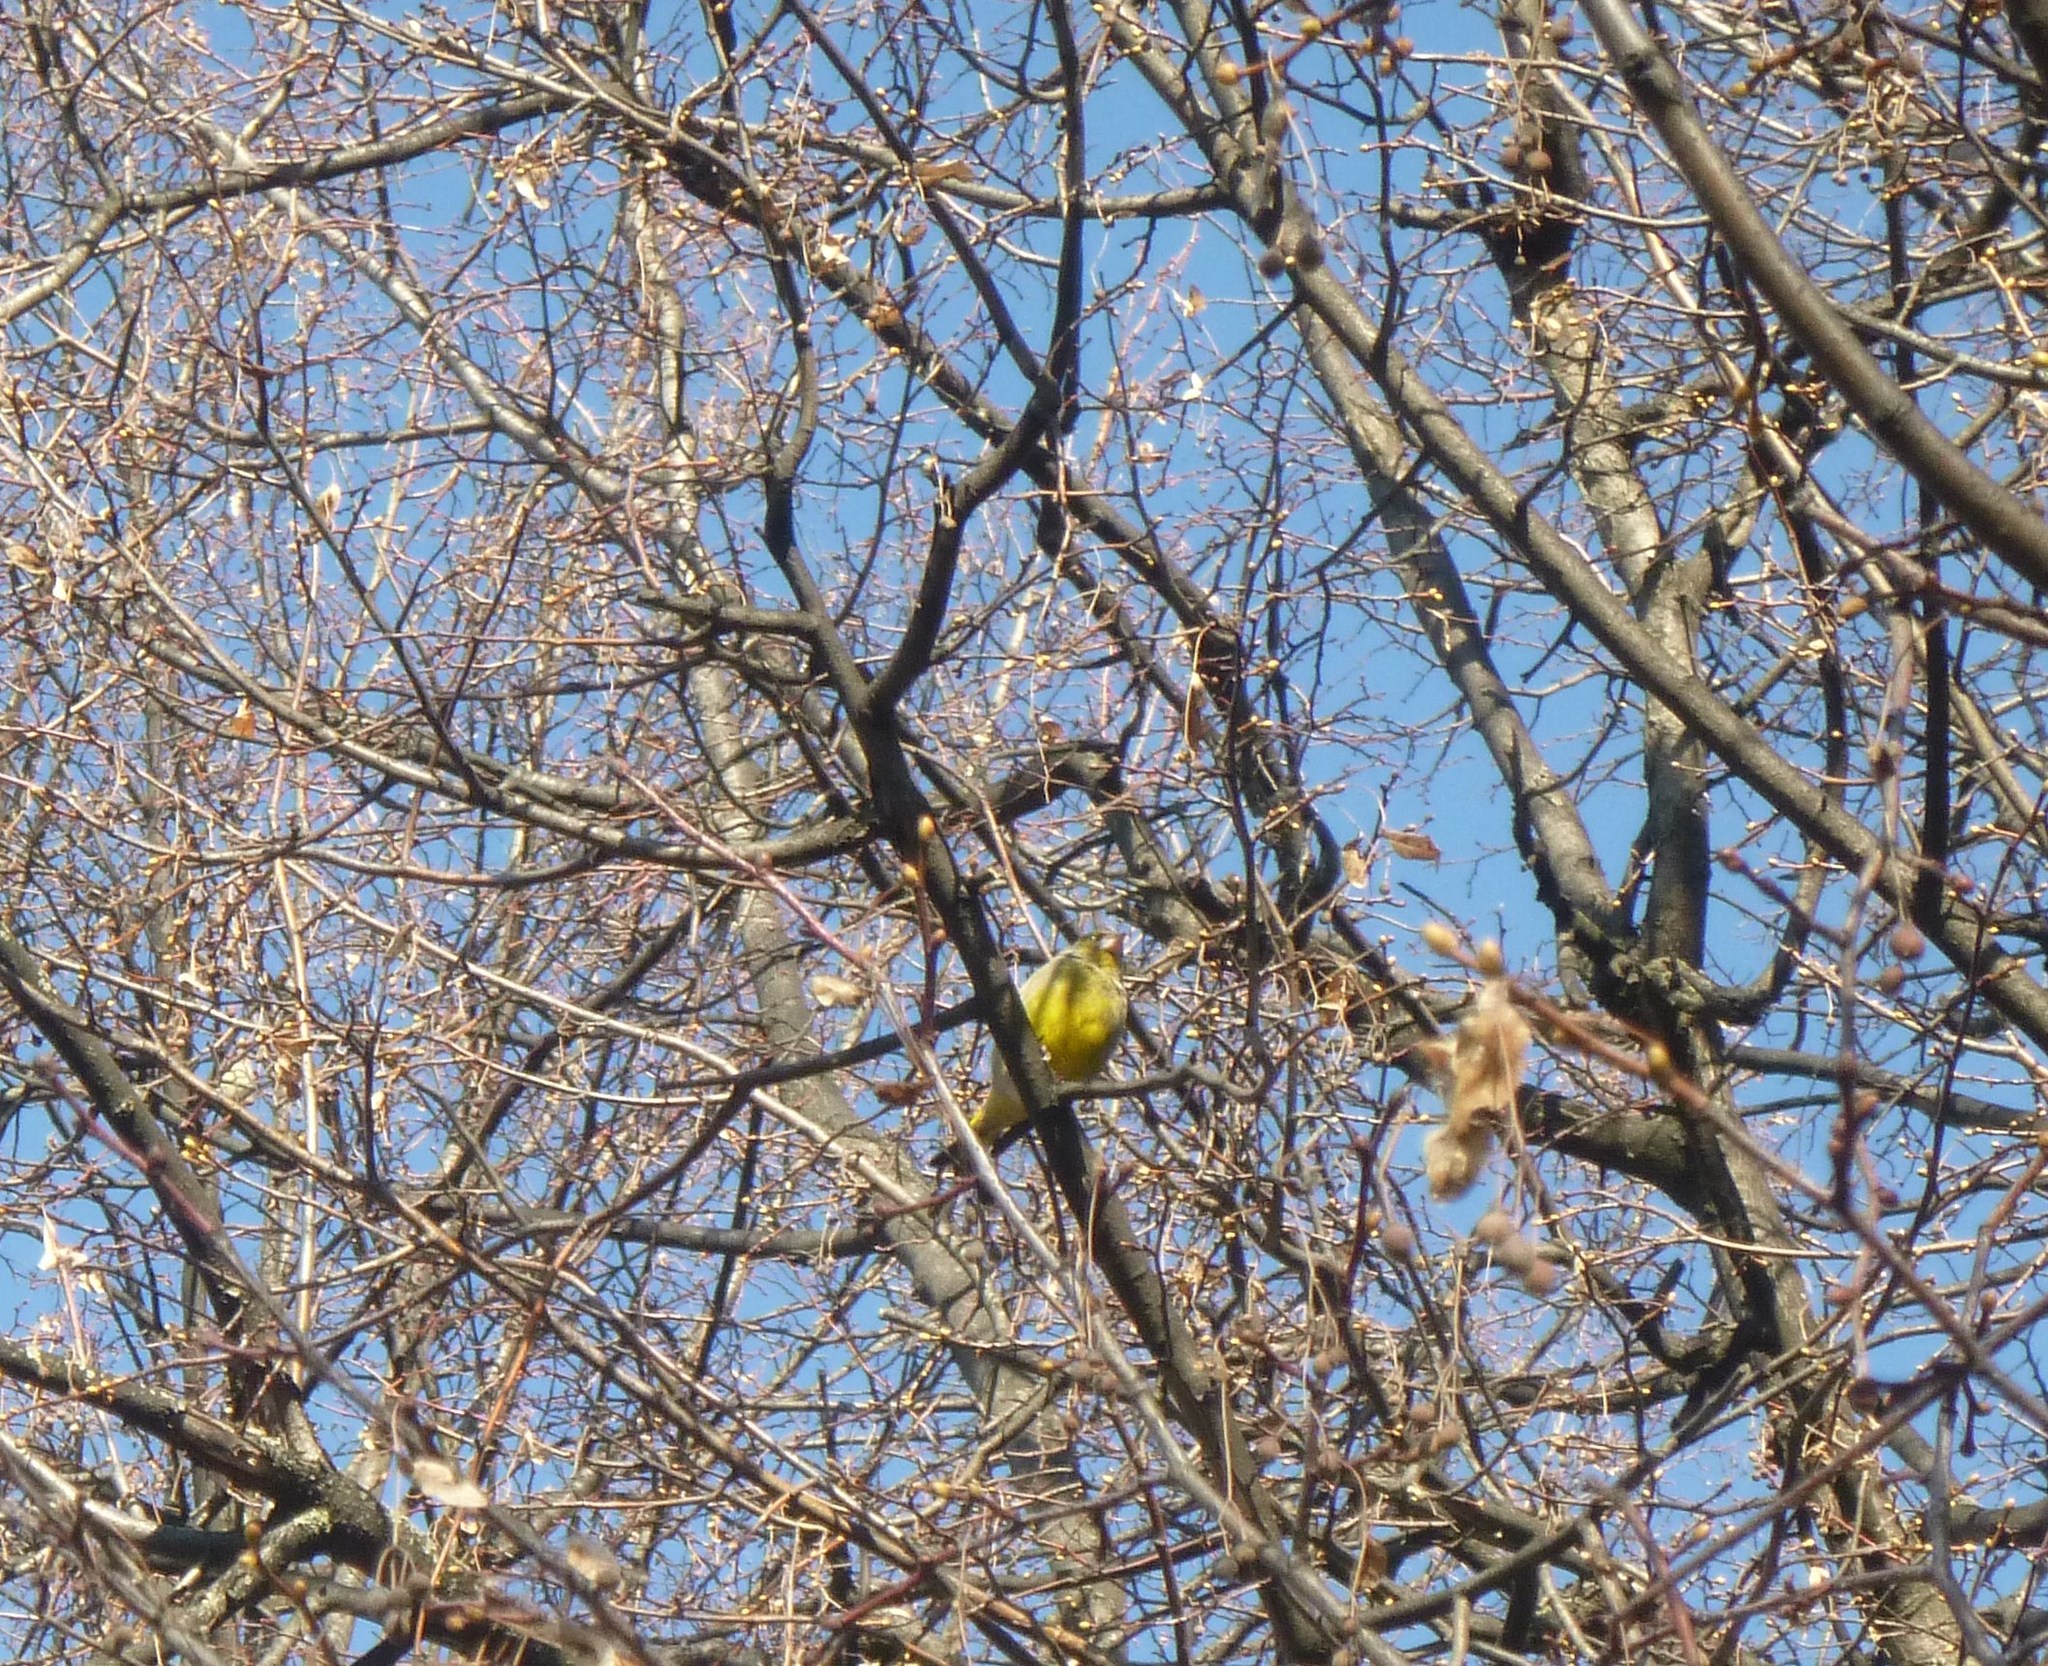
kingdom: Plantae
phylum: Tracheophyta
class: Liliopsida
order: Poales
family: Poaceae
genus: Chloris
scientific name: Chloris chloris
